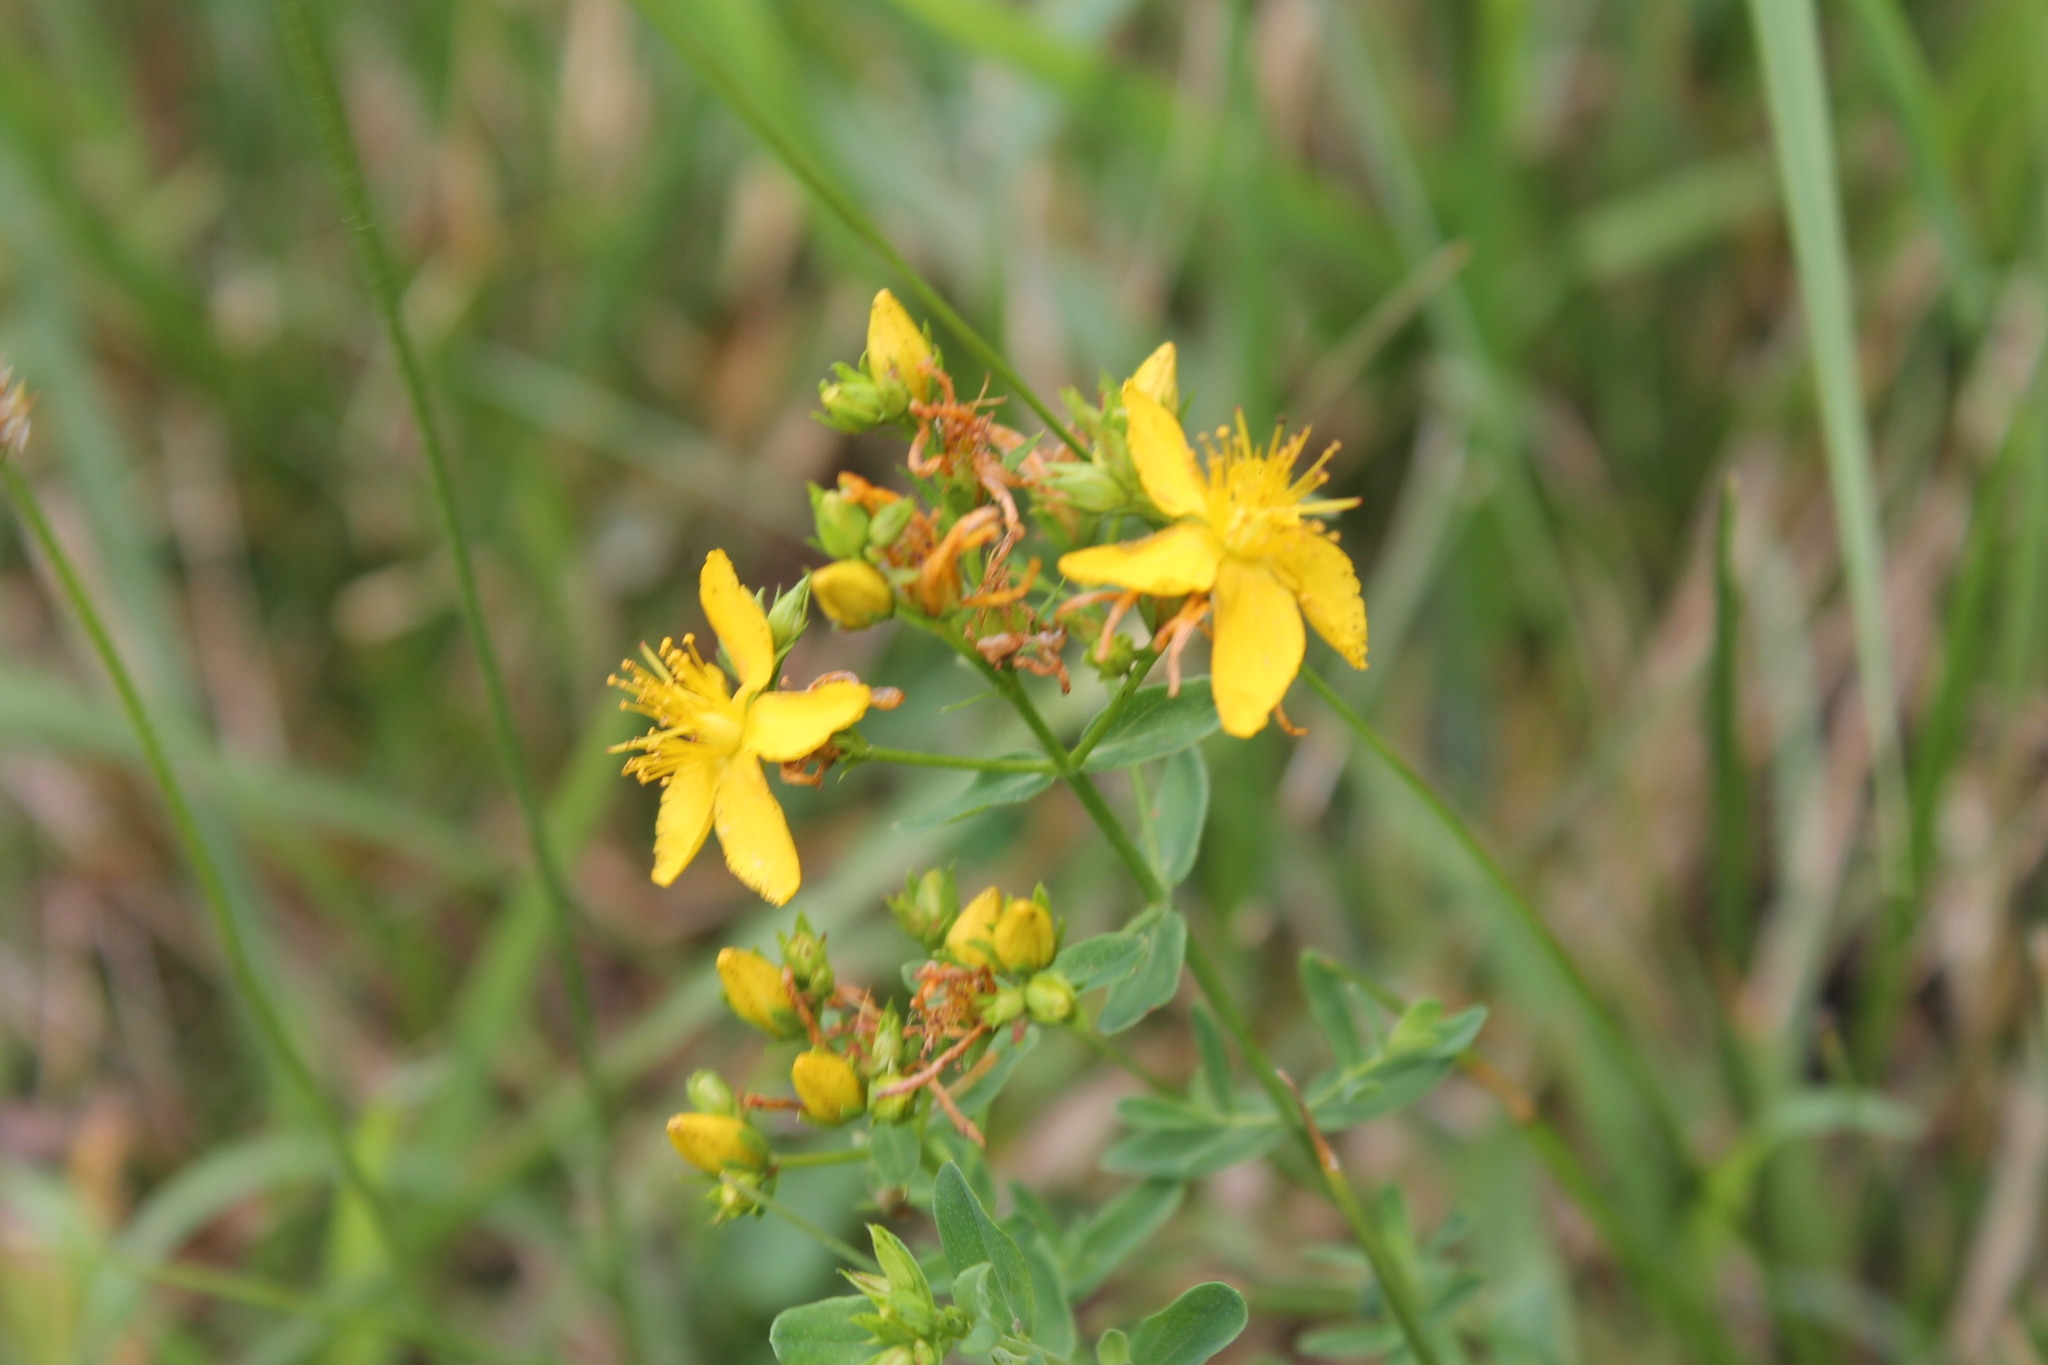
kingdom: Plantae
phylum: Tracheophyta
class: Magnoliopsida
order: Malpighiales
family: Hypericaceae
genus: Hypericum
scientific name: Hypericum punctatum
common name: Spotted st. john's-wort
